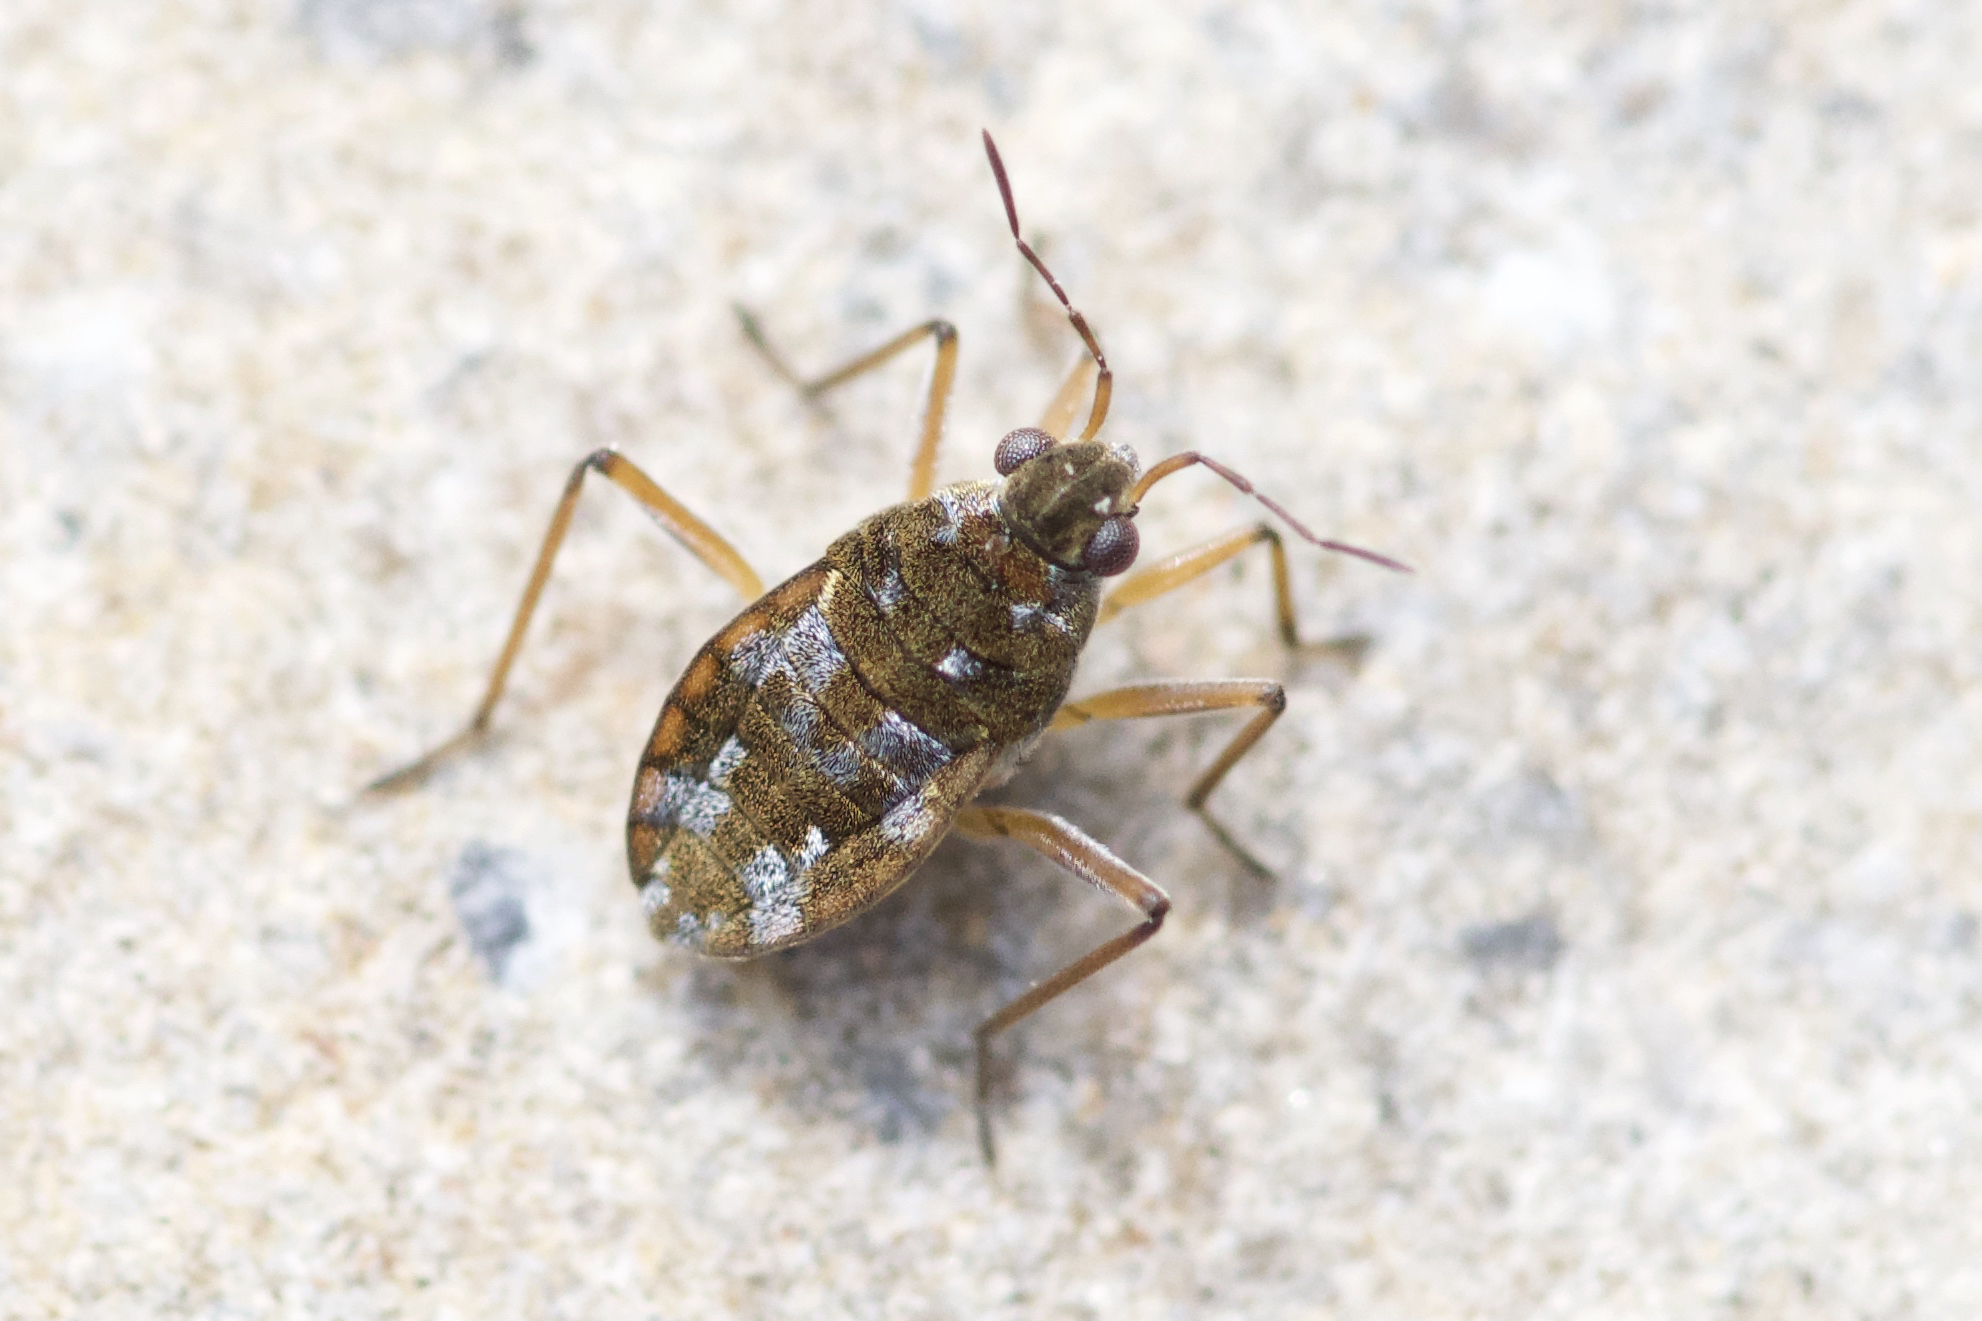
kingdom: Animalia
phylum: Arthropoda
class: Insecta
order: Hemiptera
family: Veliidae
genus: Microvelia
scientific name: Microvelia americana
